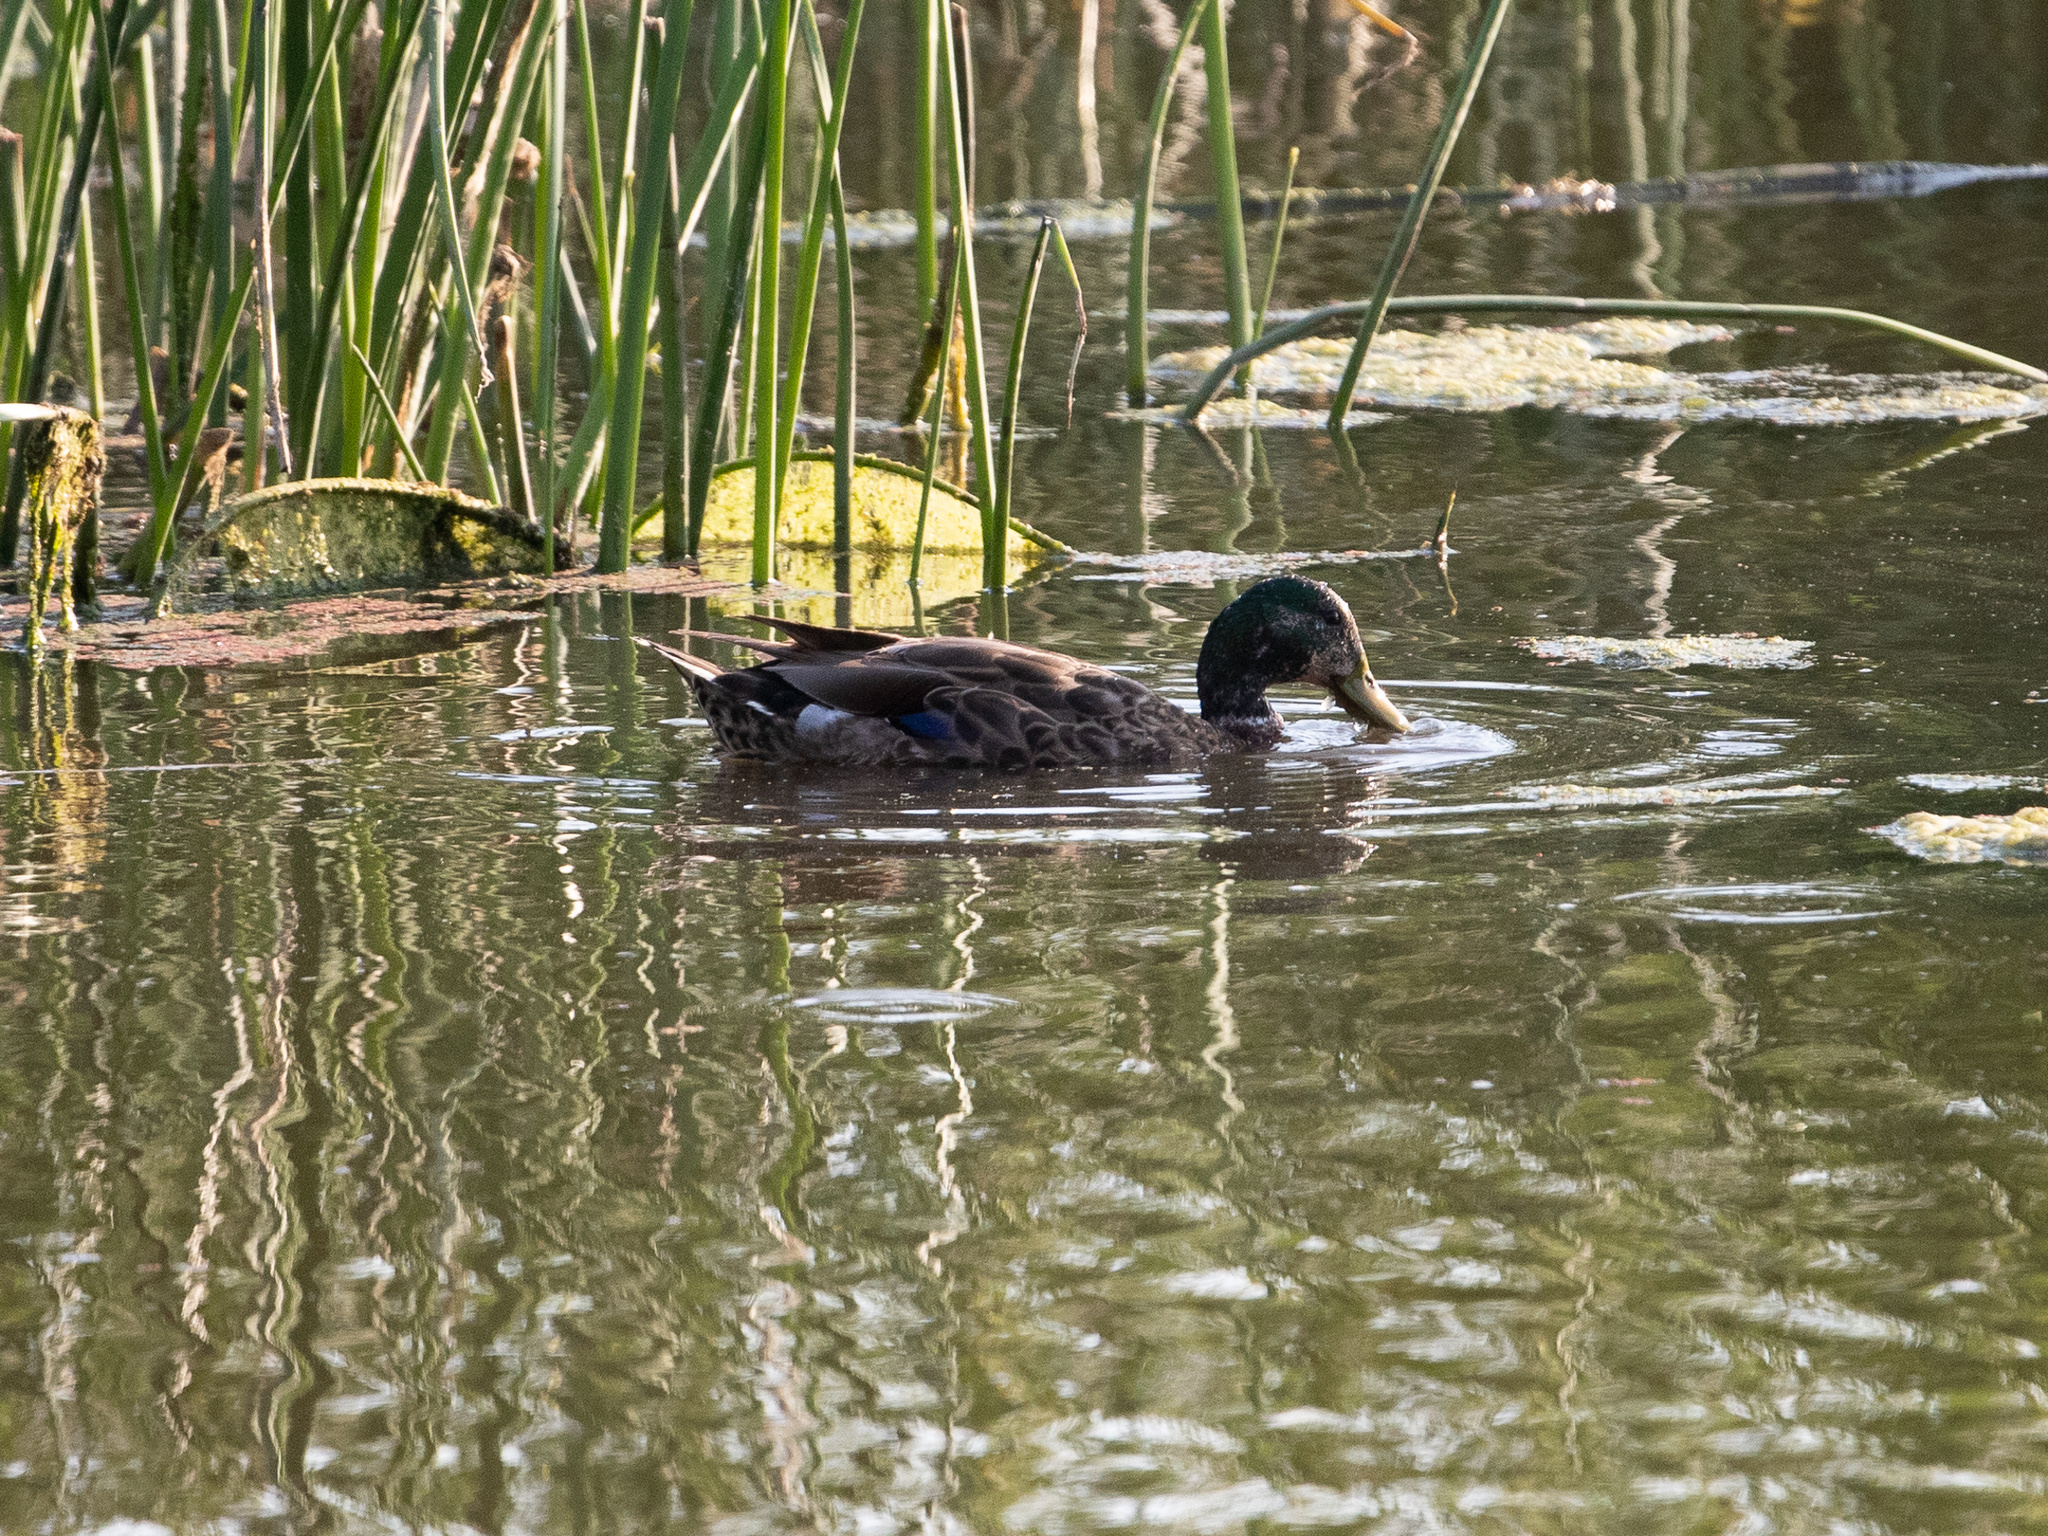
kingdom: Animalia
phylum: Chordata
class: Aves
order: Anseriformes
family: Anatidae
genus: Anas
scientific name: Anas platyrhynchos
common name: Mallard
